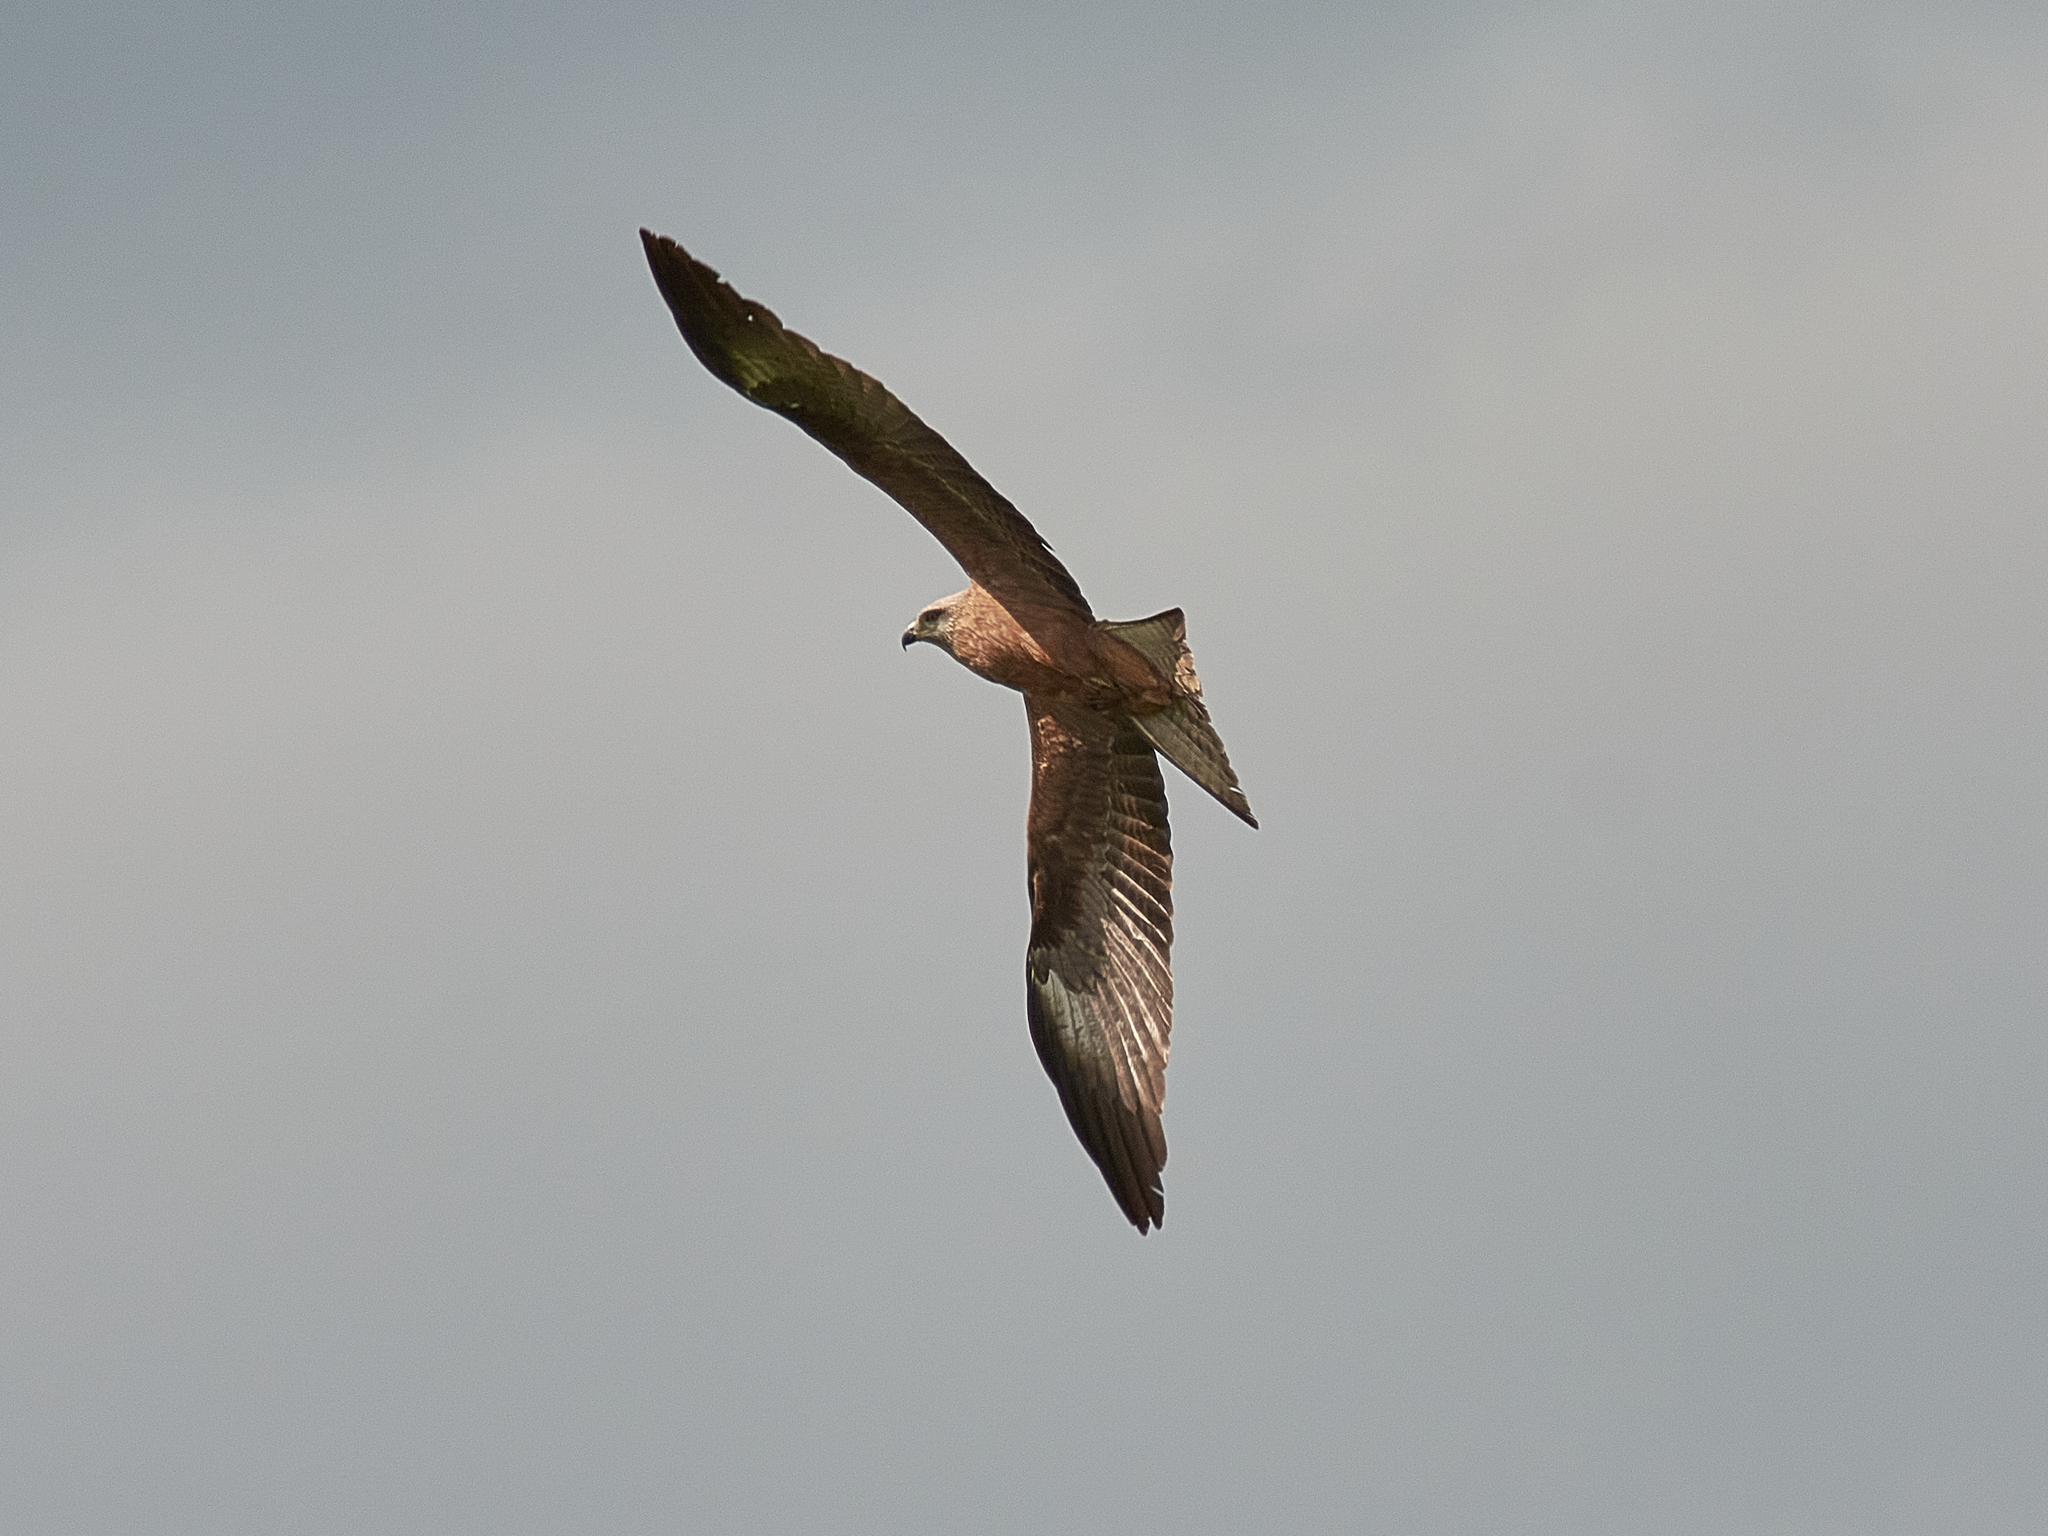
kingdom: Animalia
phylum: Chordata
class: Aves
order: Accipitriformes
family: Accipitridae
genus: Milvus
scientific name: Milvus migrans
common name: Black kite
